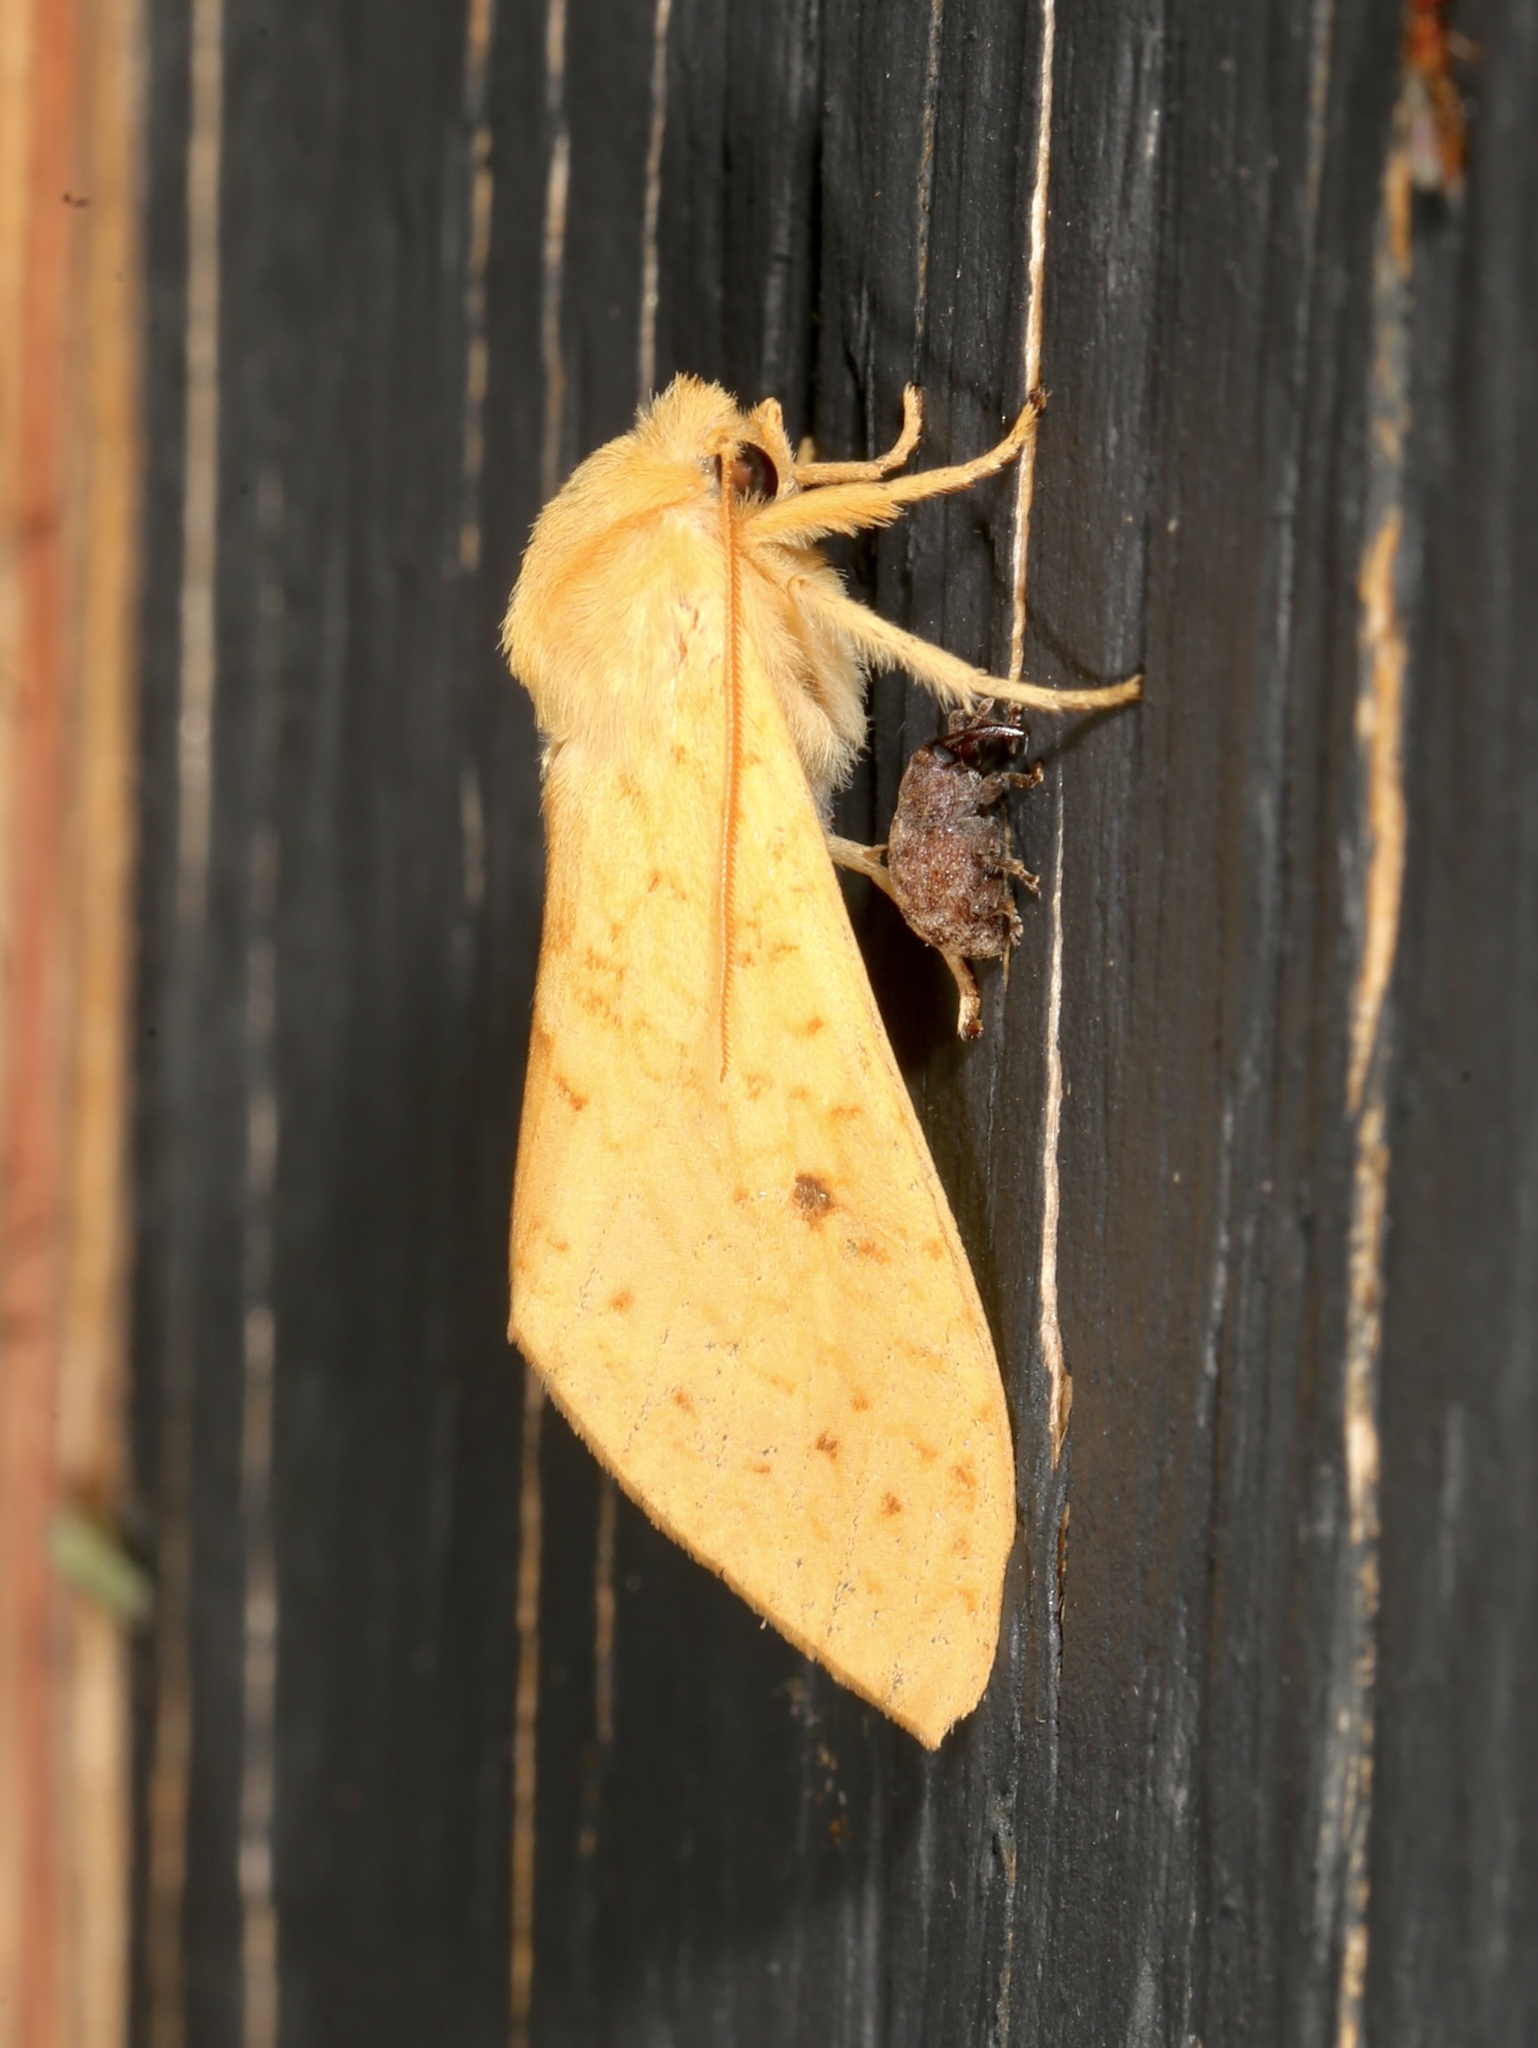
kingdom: Animalia
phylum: Arthropoda
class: Insecta
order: Lepidoptera
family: Erebidae
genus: Lophocampa
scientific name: Lophocampa pura
